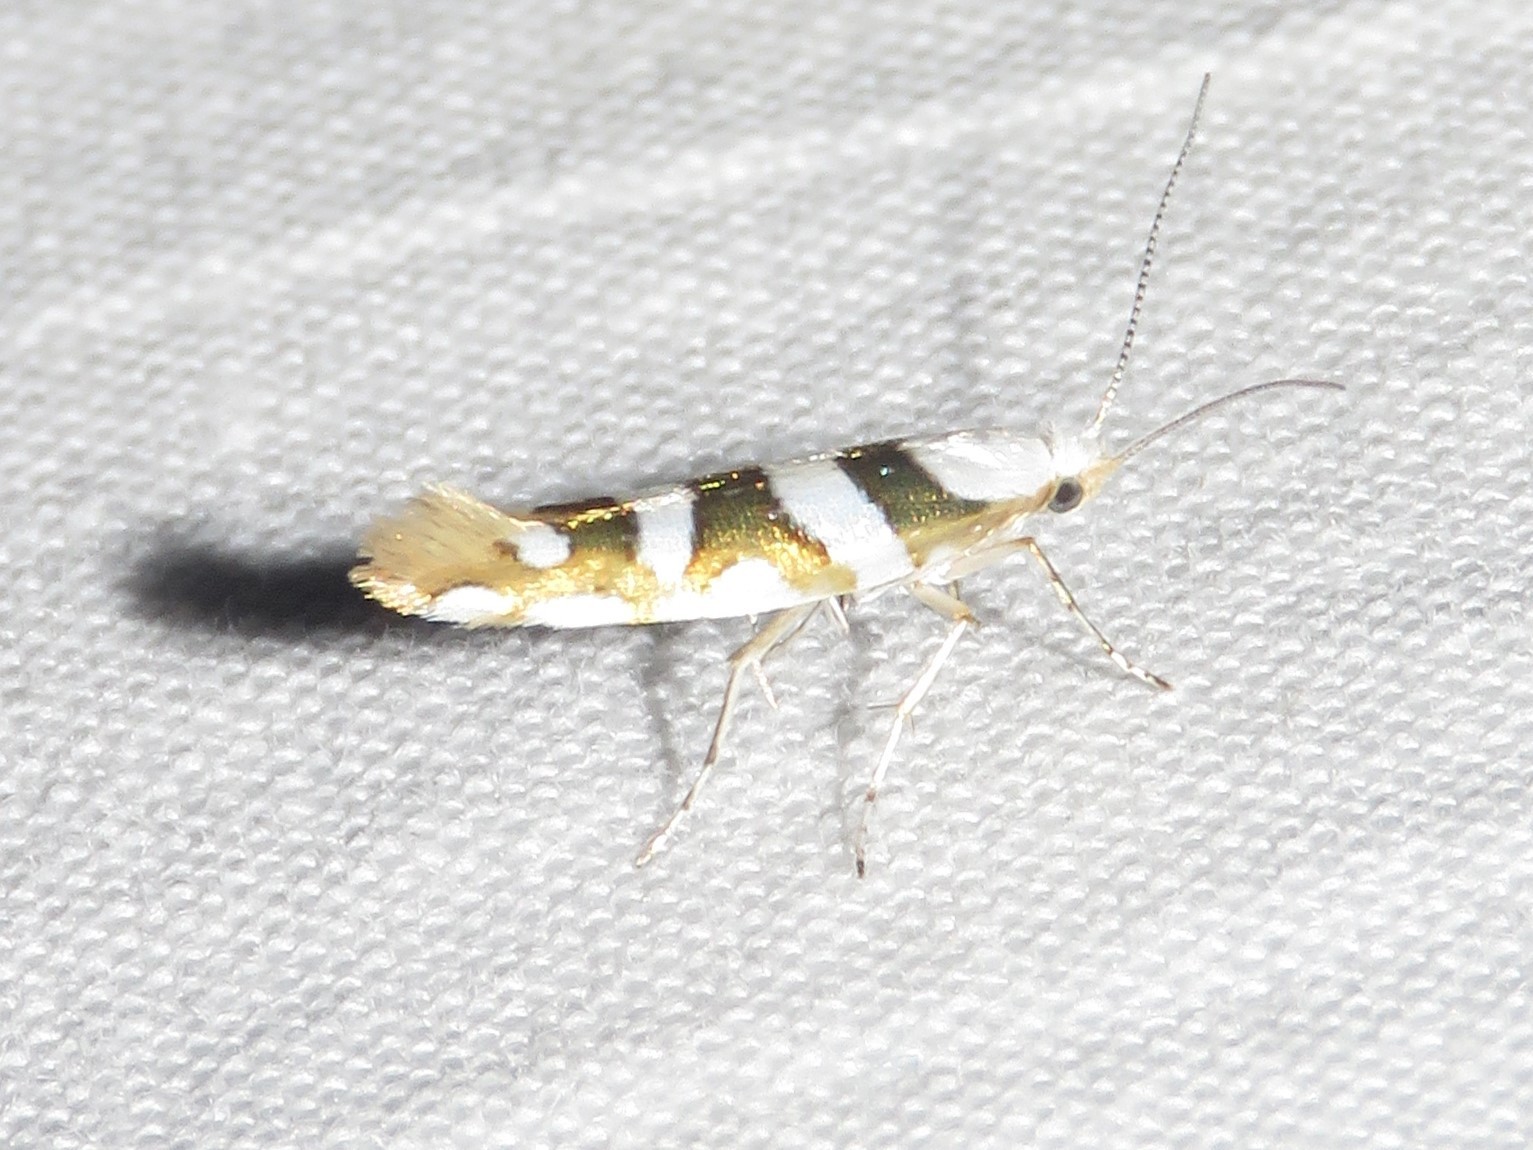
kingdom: Animalia
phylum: Arthropoda
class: Insecta
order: Lepidoptera
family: Argyresthiidae
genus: Argyresthia
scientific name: Argyresthia calliphanes
